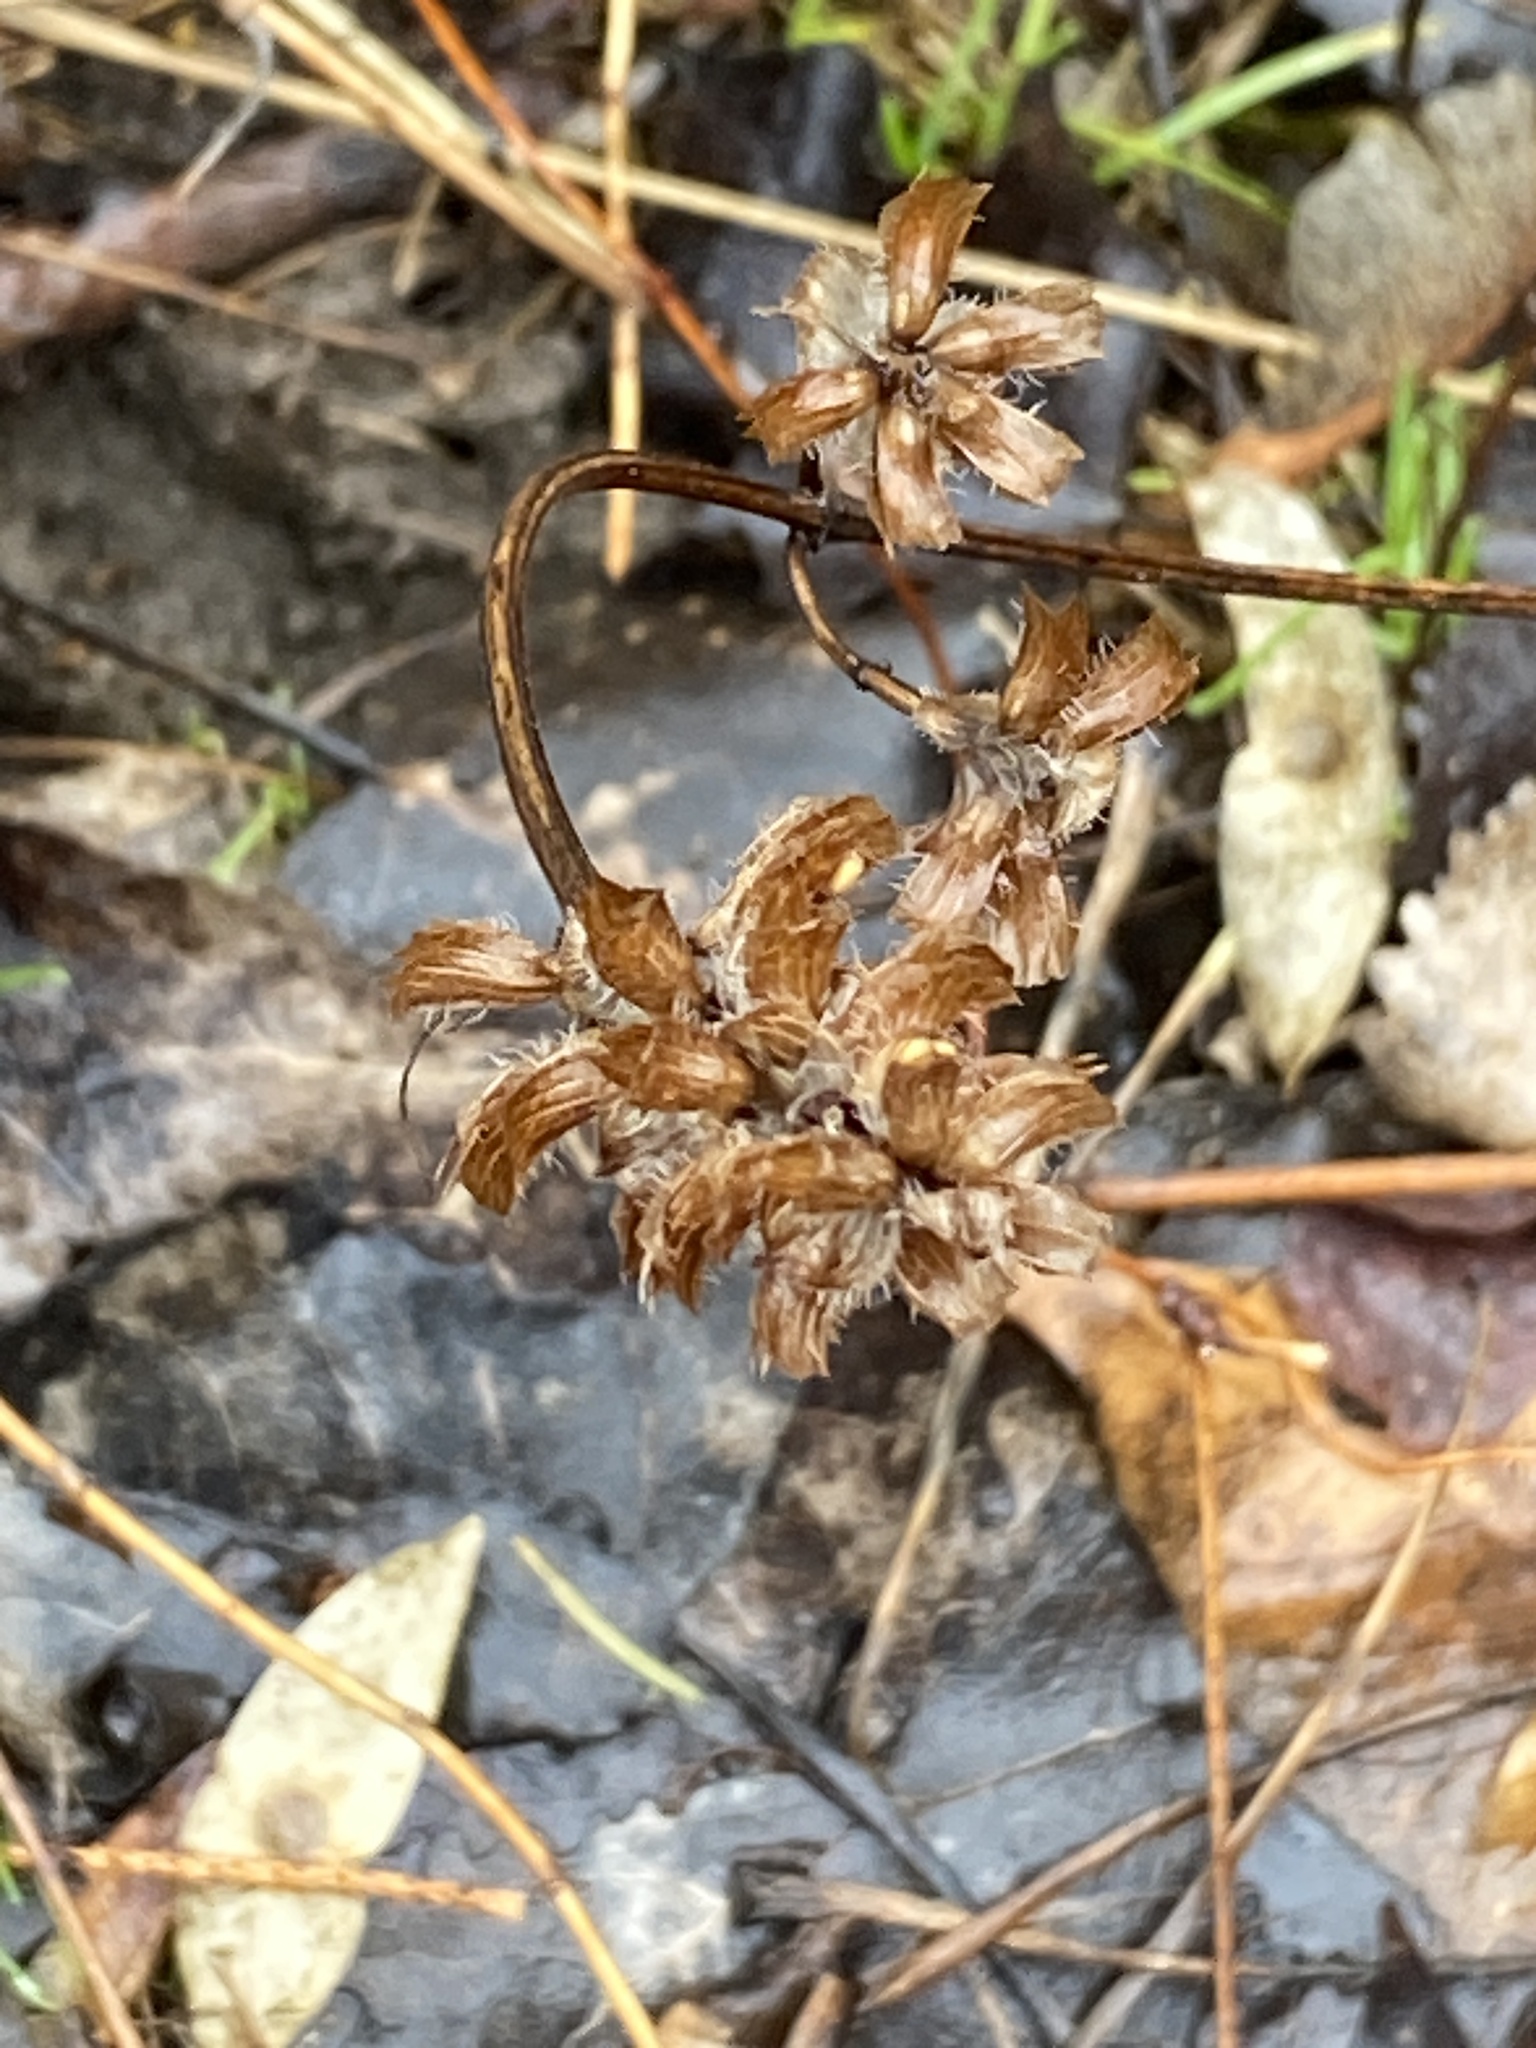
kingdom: Plantae
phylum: Tracheophyta
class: Magnoliopsida
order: Lamiales
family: Lamiaceae
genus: Prunella
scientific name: Prunella vulgaris
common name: Heal-all
